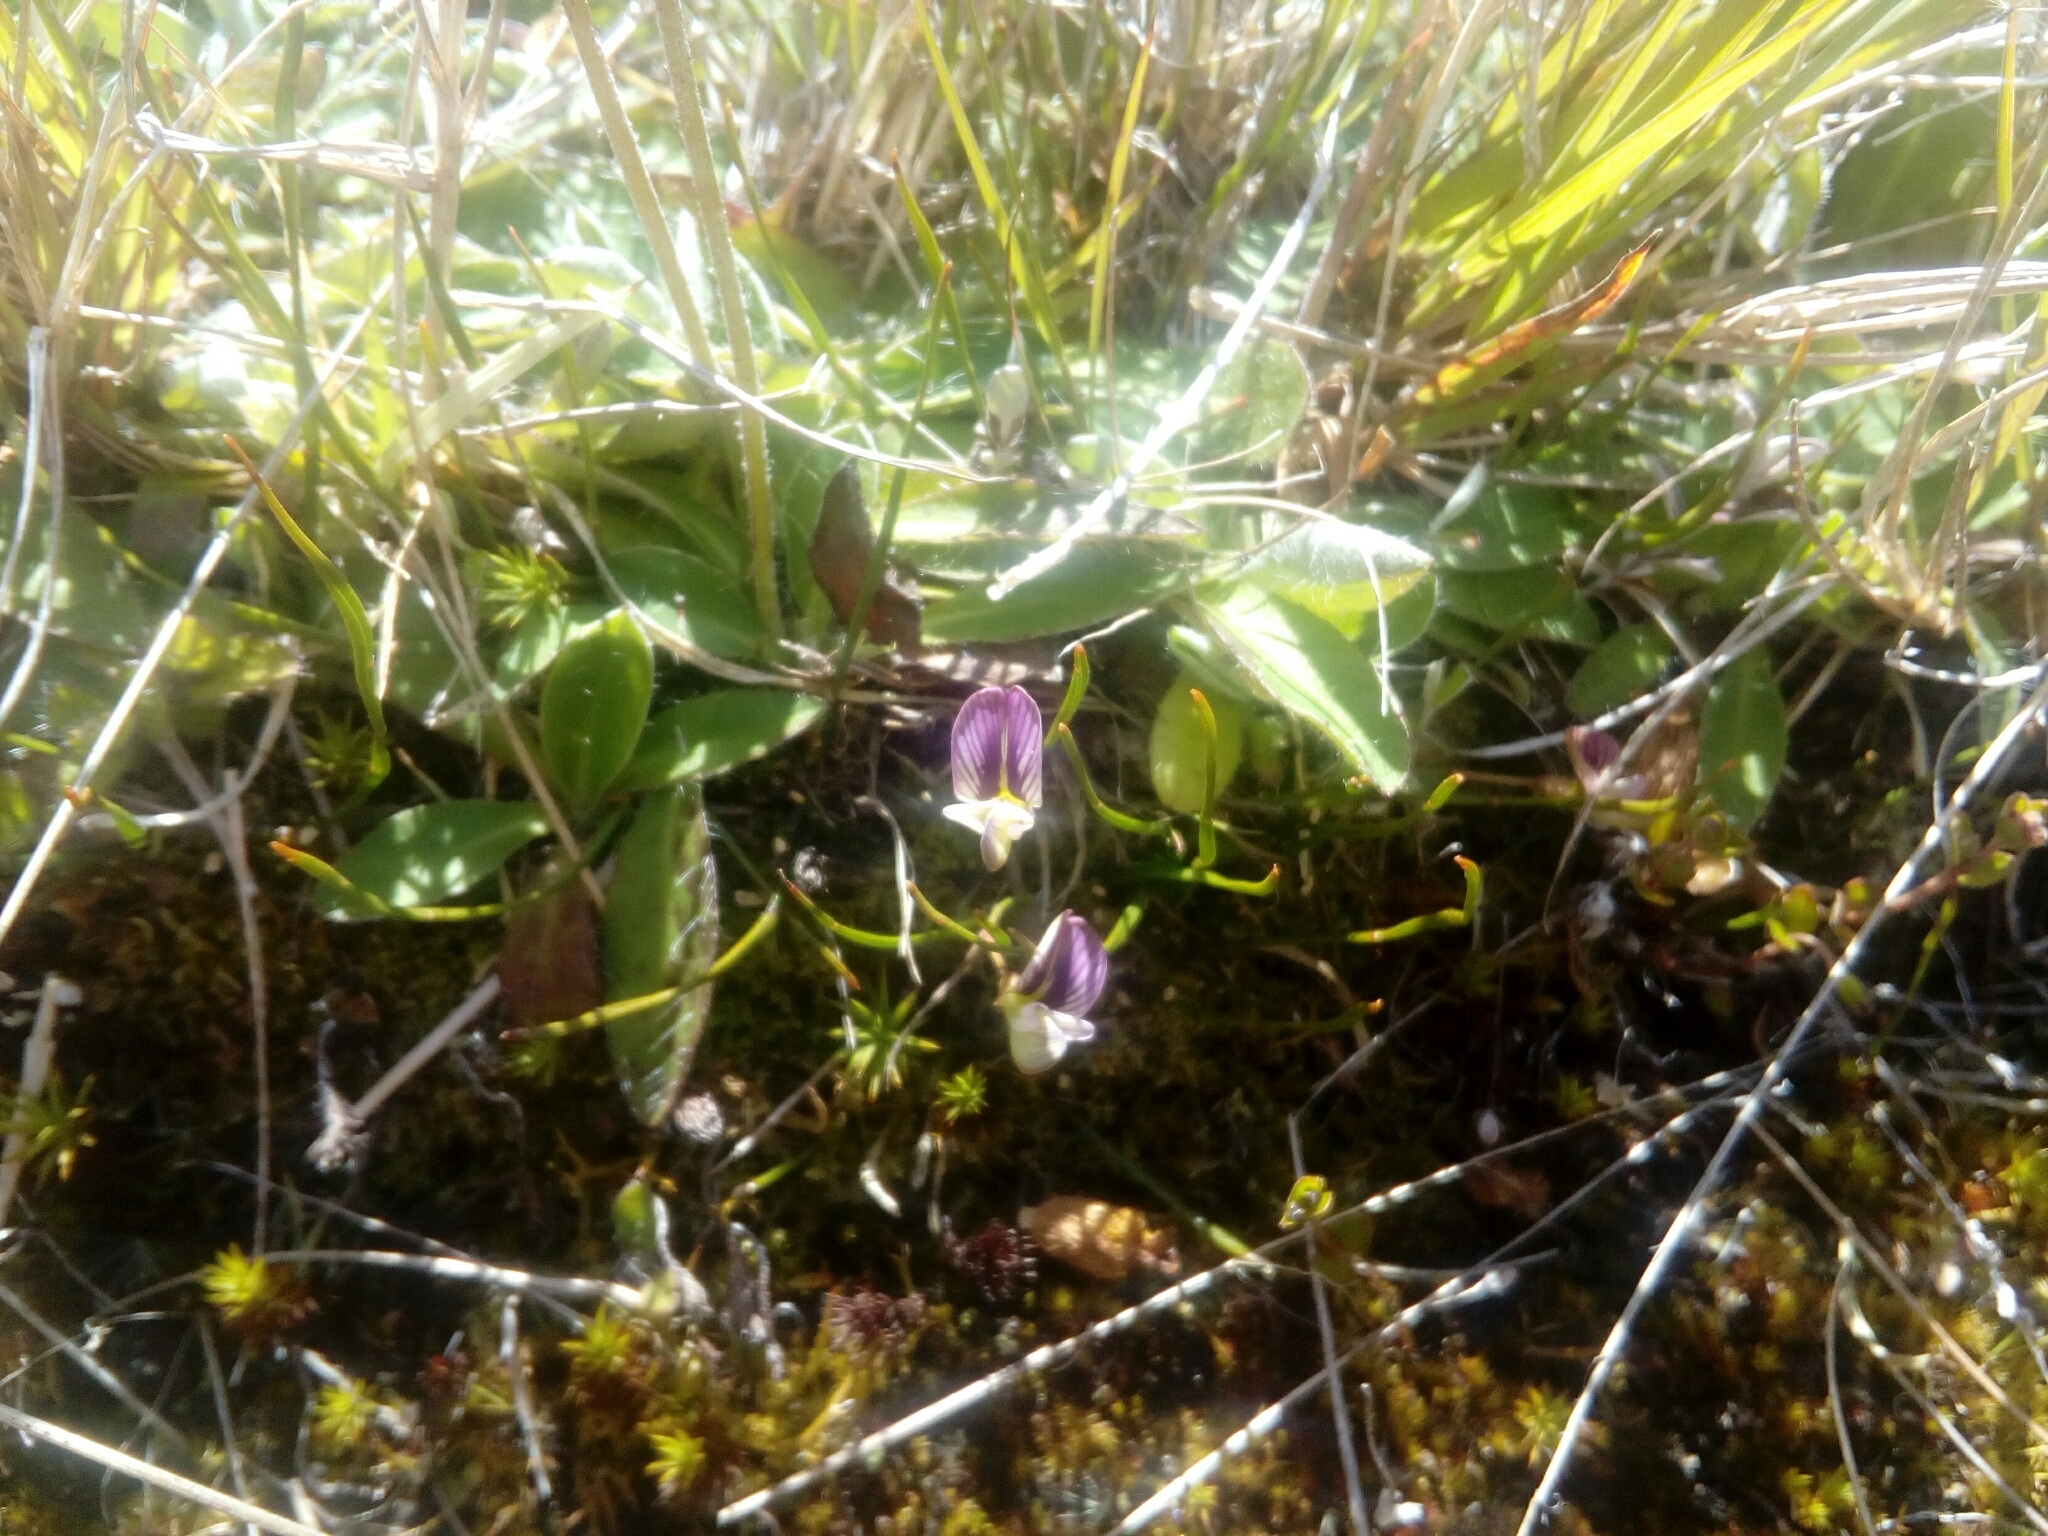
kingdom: Plantae
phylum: Tracheophyta
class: Magnoliopsida
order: Fabales
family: Fabaceae
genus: Carmichaelia
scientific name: Carmichaelia uniflora
